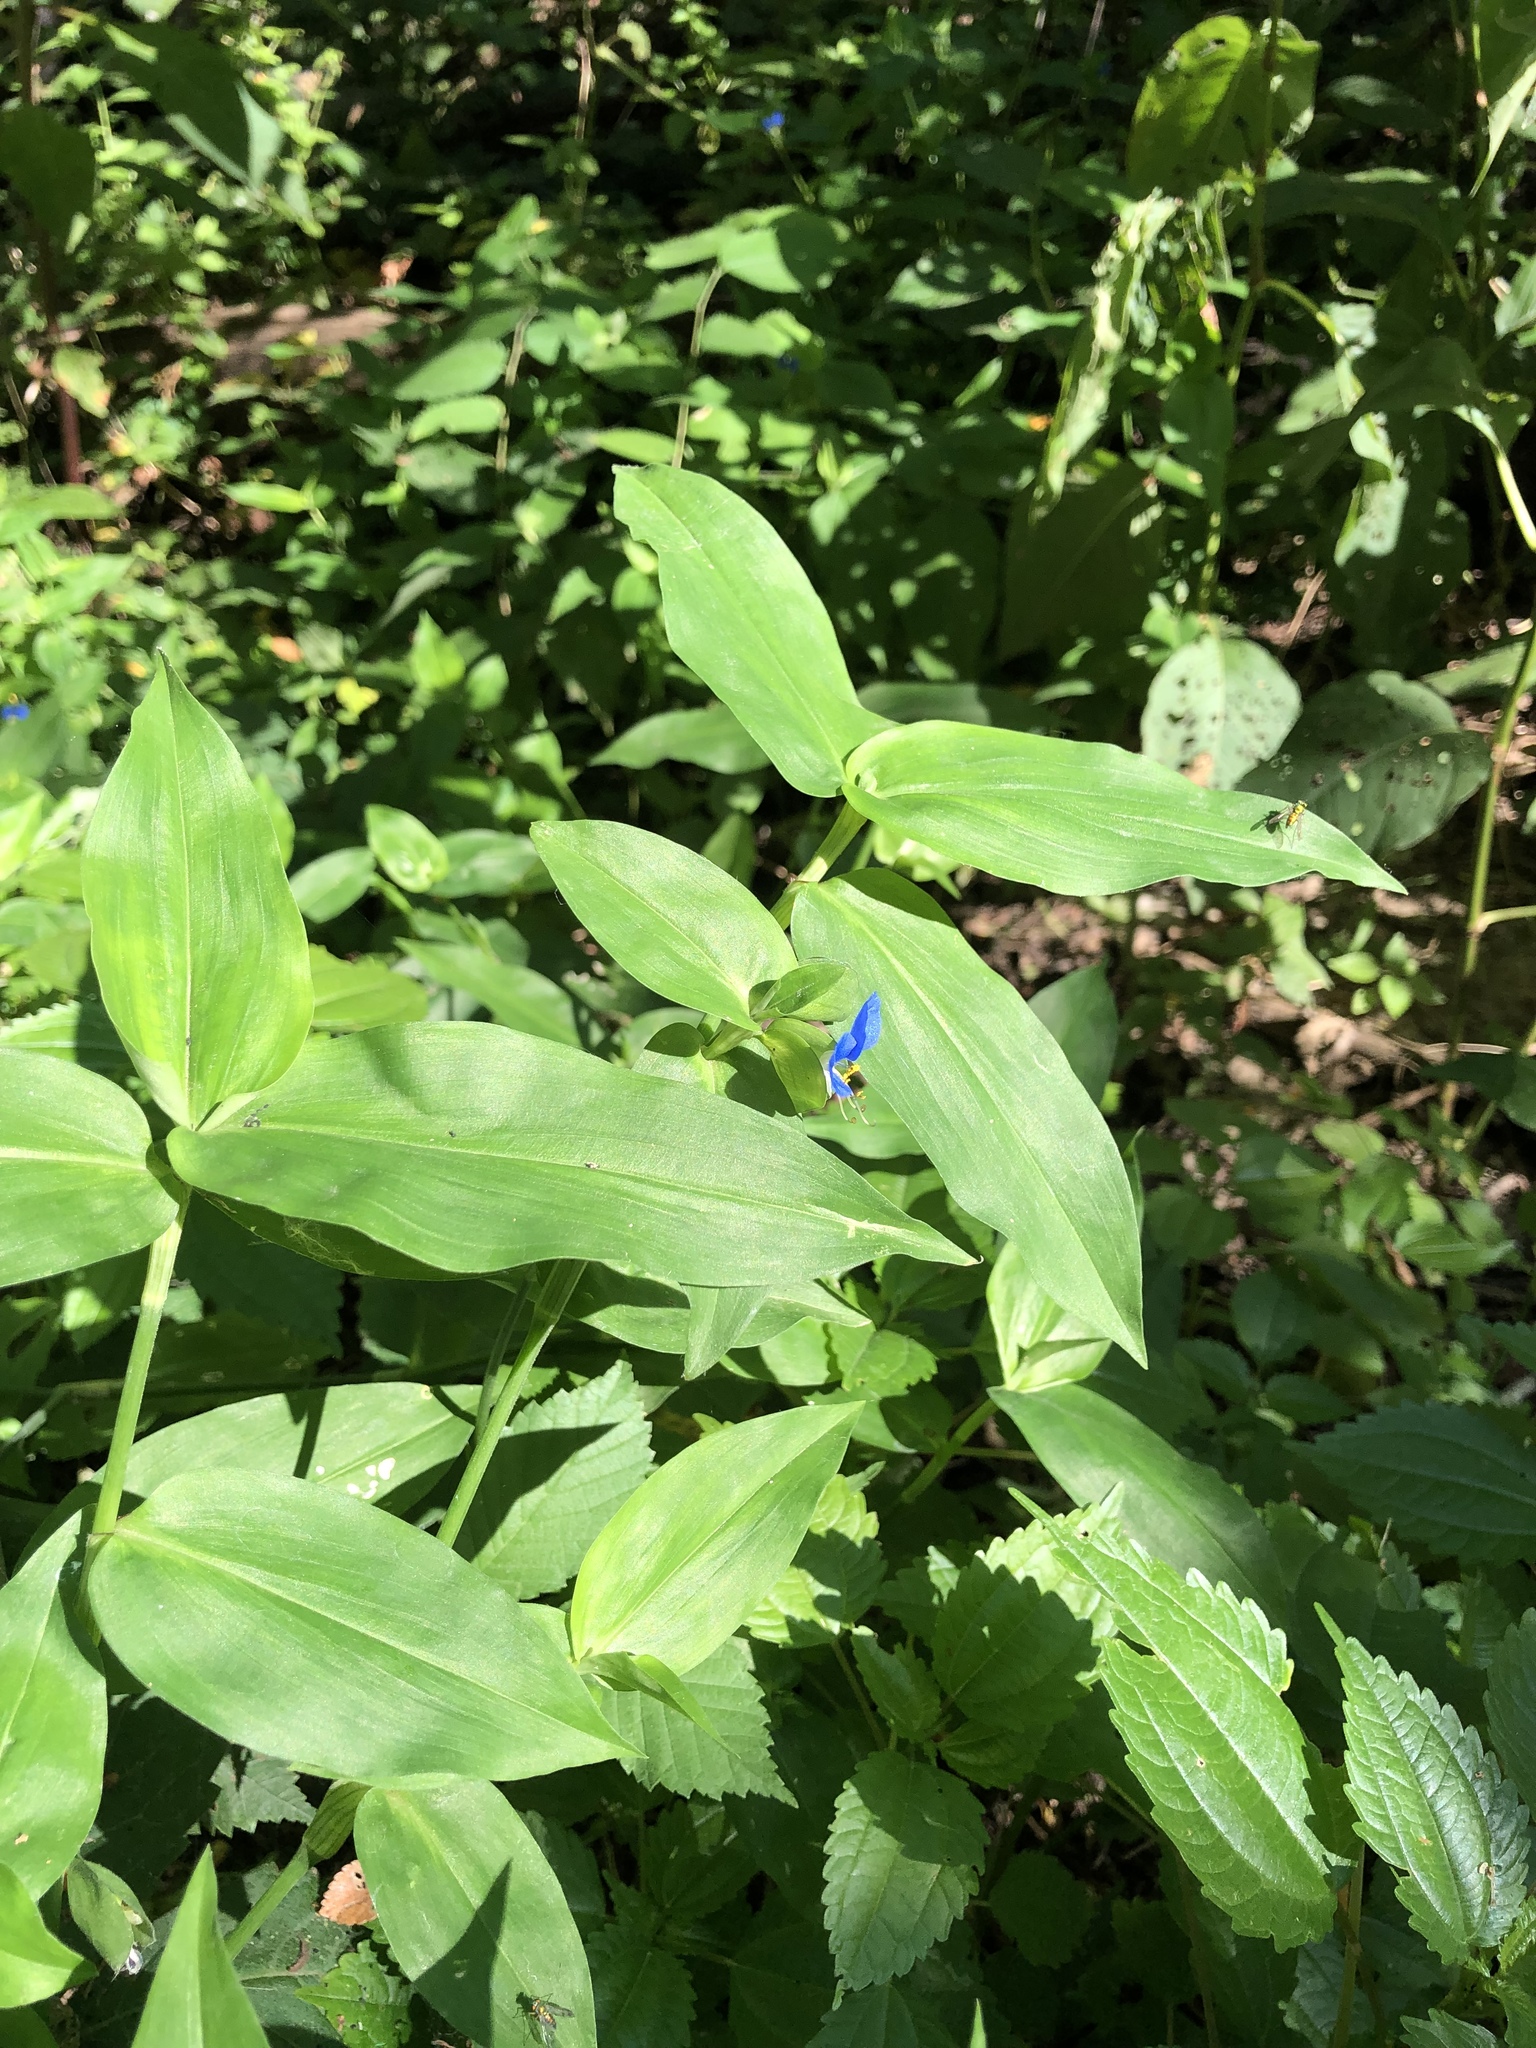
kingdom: Plantae
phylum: Tracheophyta
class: Liliopsida
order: Commelinales
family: Commelinaceae
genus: Commelina
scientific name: Commelina communis
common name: Asiatic dayflower
